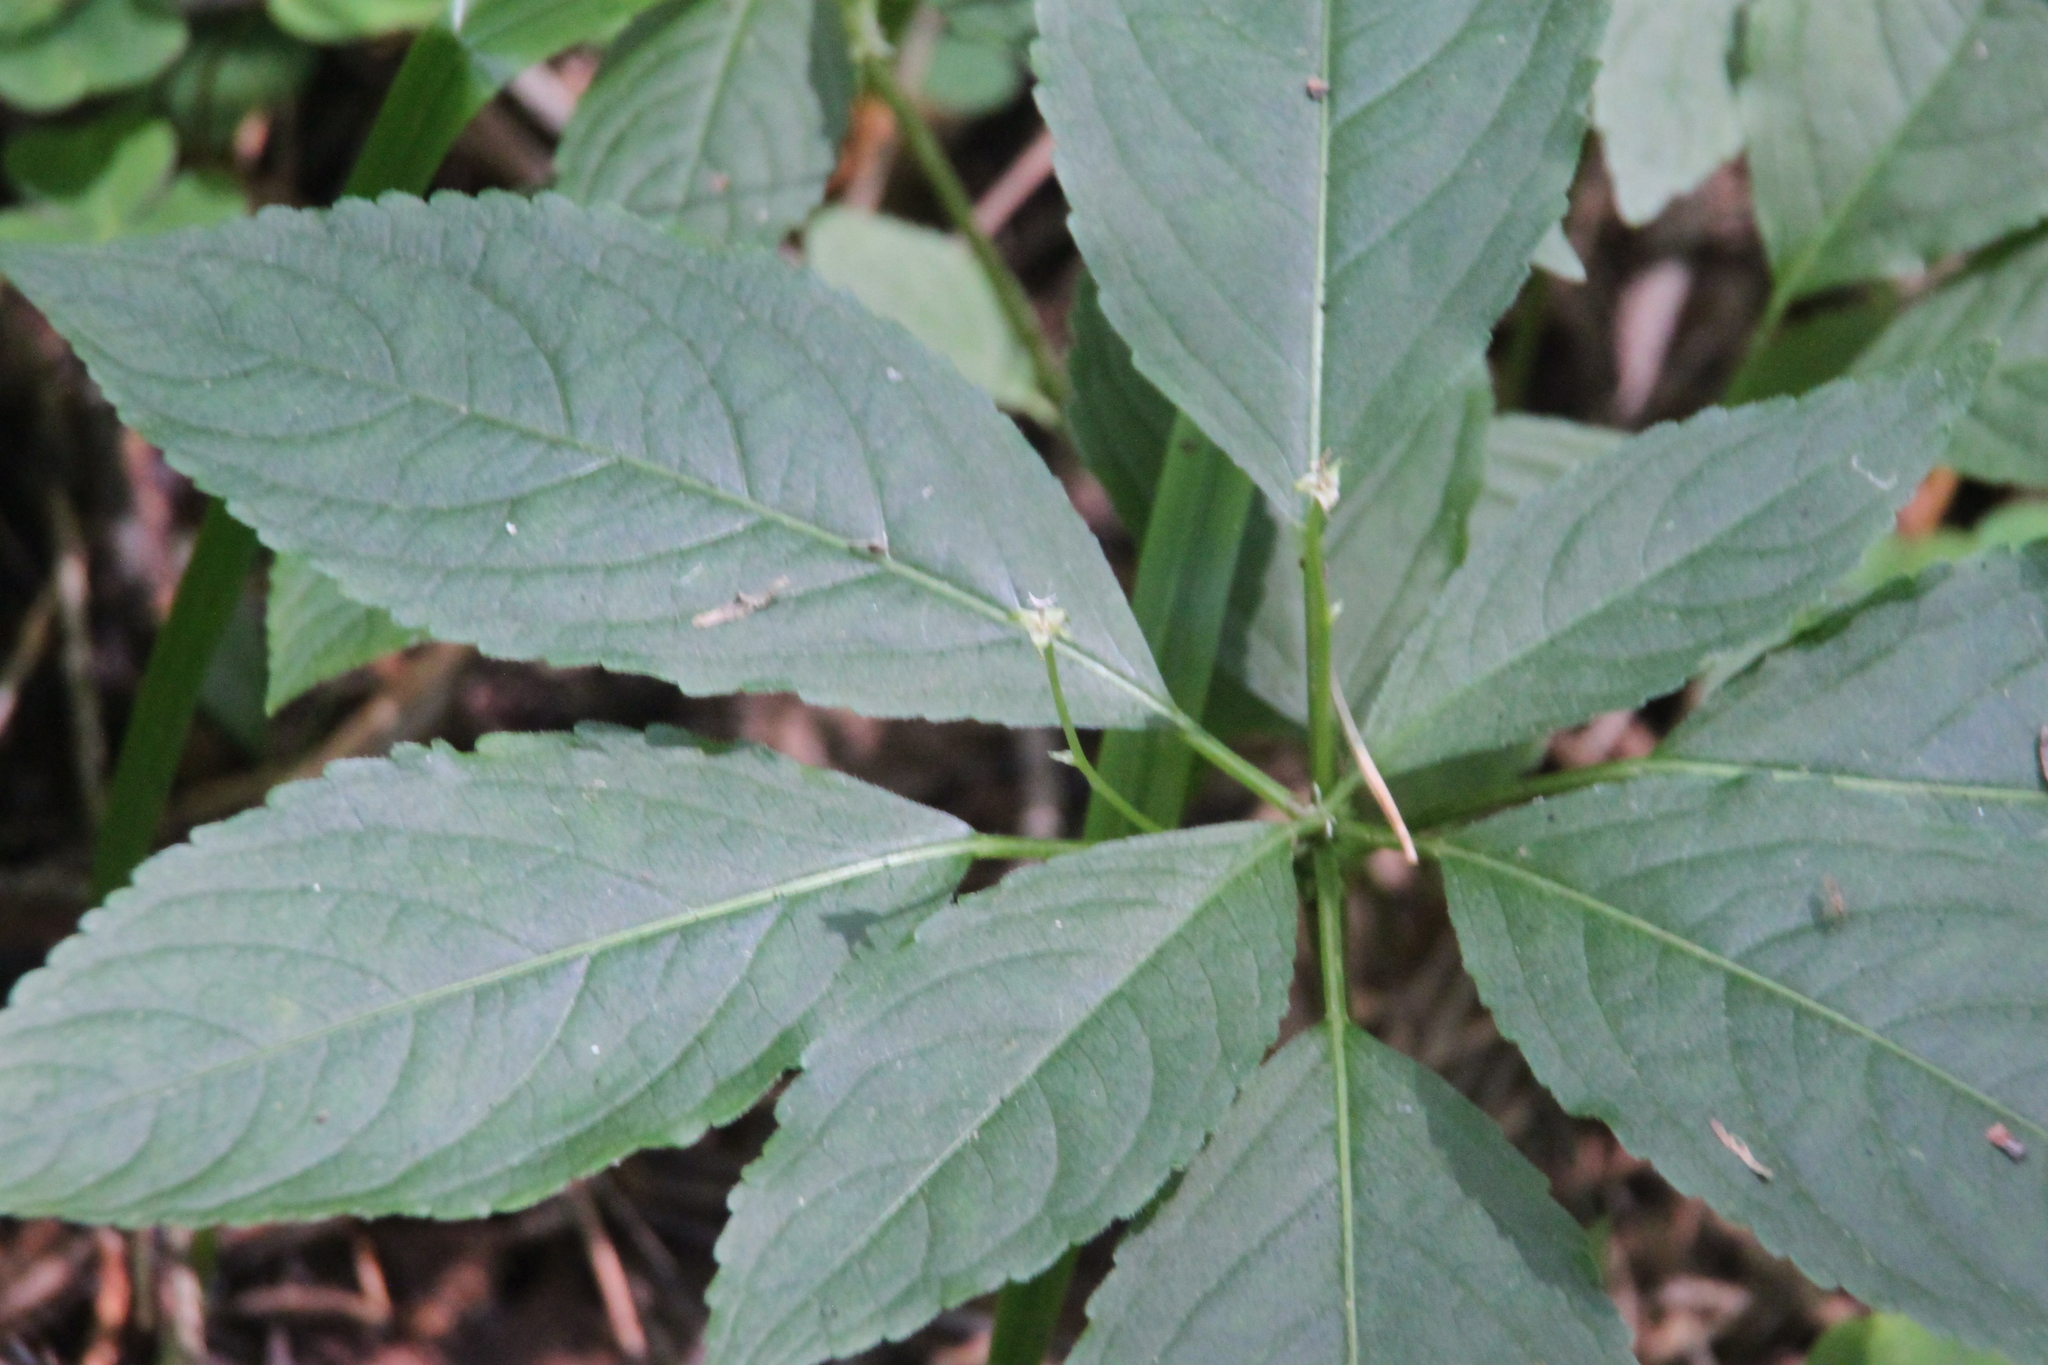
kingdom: Plantae
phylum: Tracheophyta
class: Magnoliopsida
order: Malpighiales
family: Euphorbiaceae
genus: Mercurialis
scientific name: Mercurialis perennis
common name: Dog mercury
